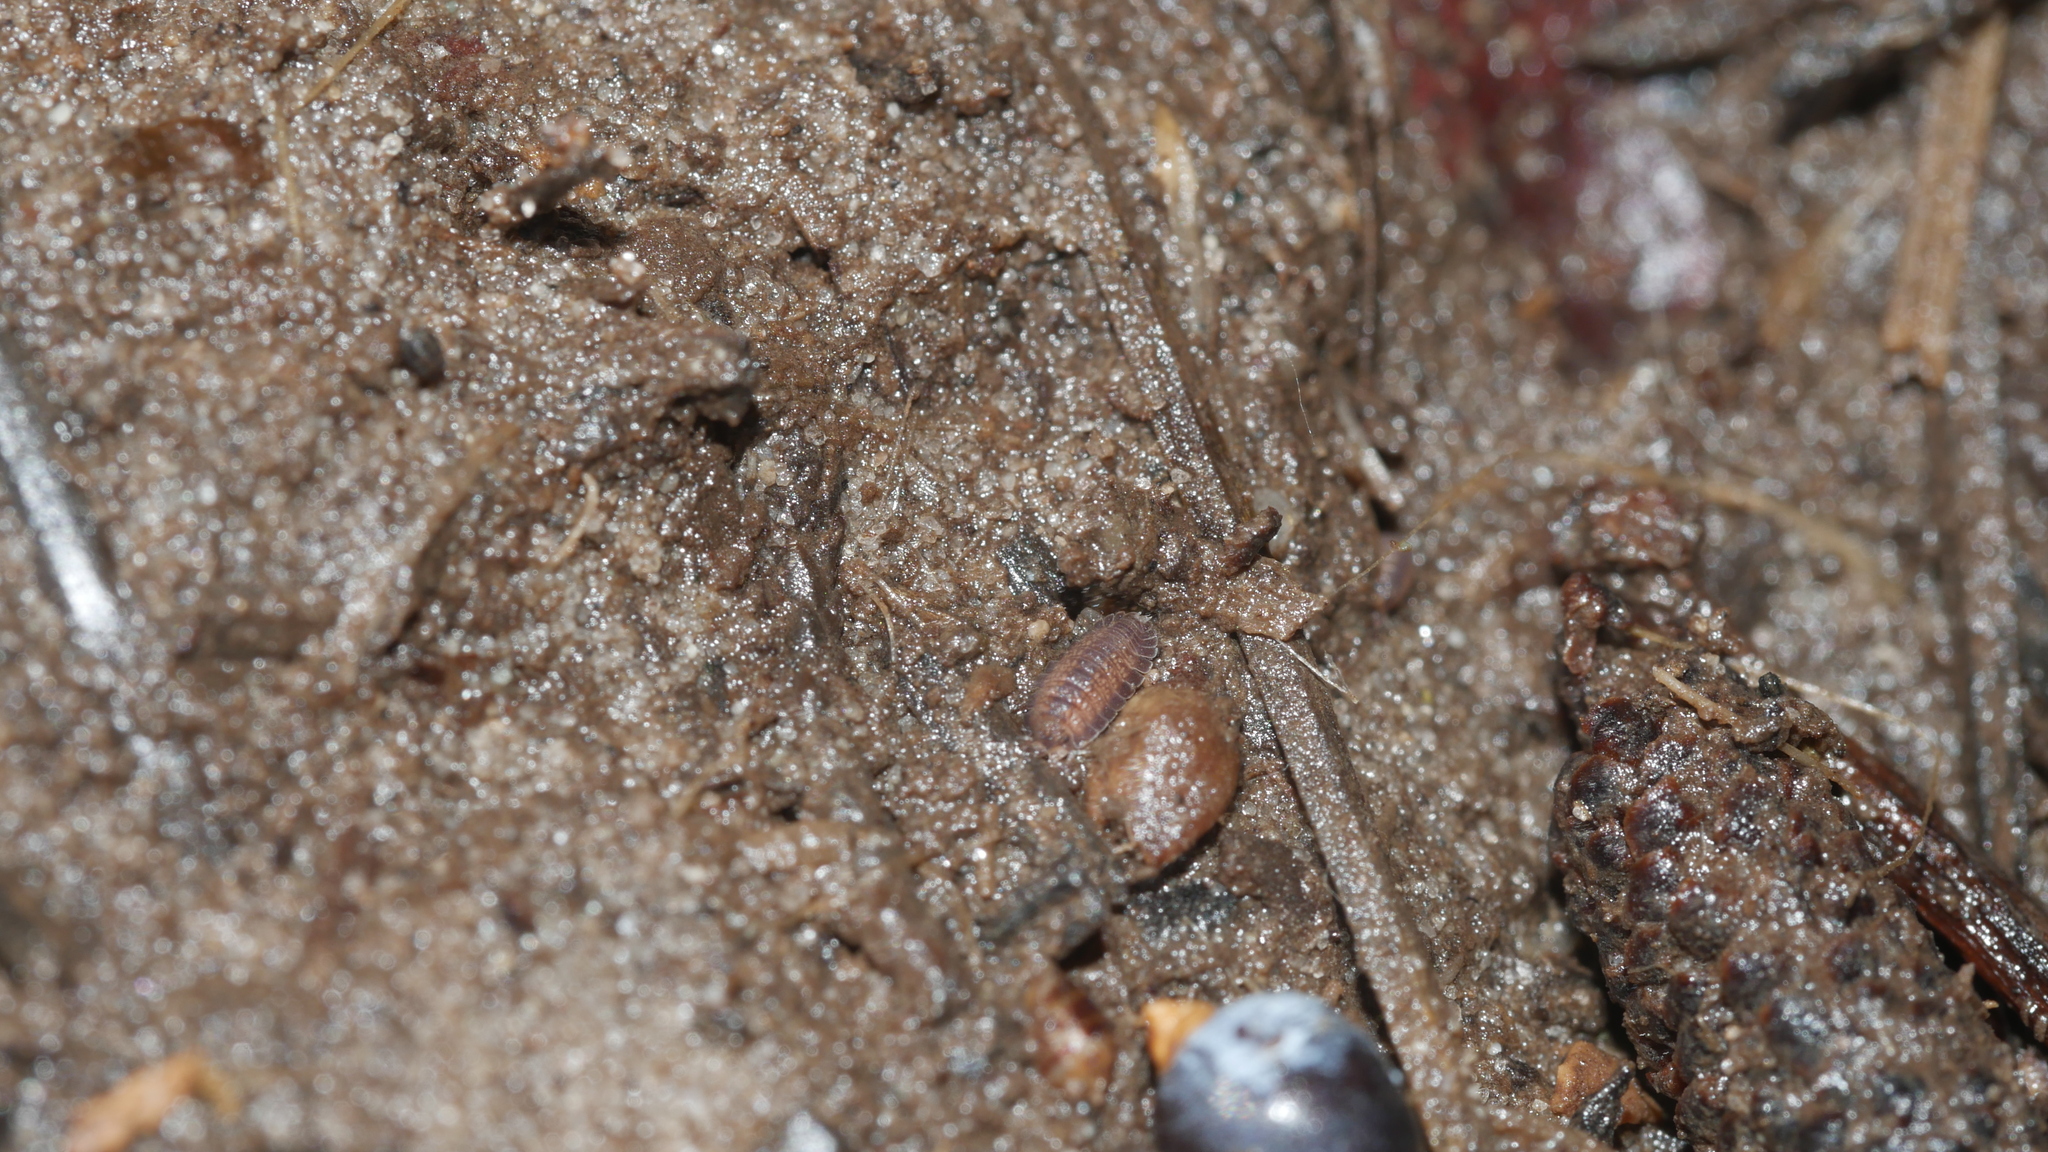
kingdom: Animalia
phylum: Arthropoda
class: Malacostraca
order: Isopoda
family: Detonidae
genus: Armadilloniscus
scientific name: Armadilloniscus ellipticus
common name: Pillbug
